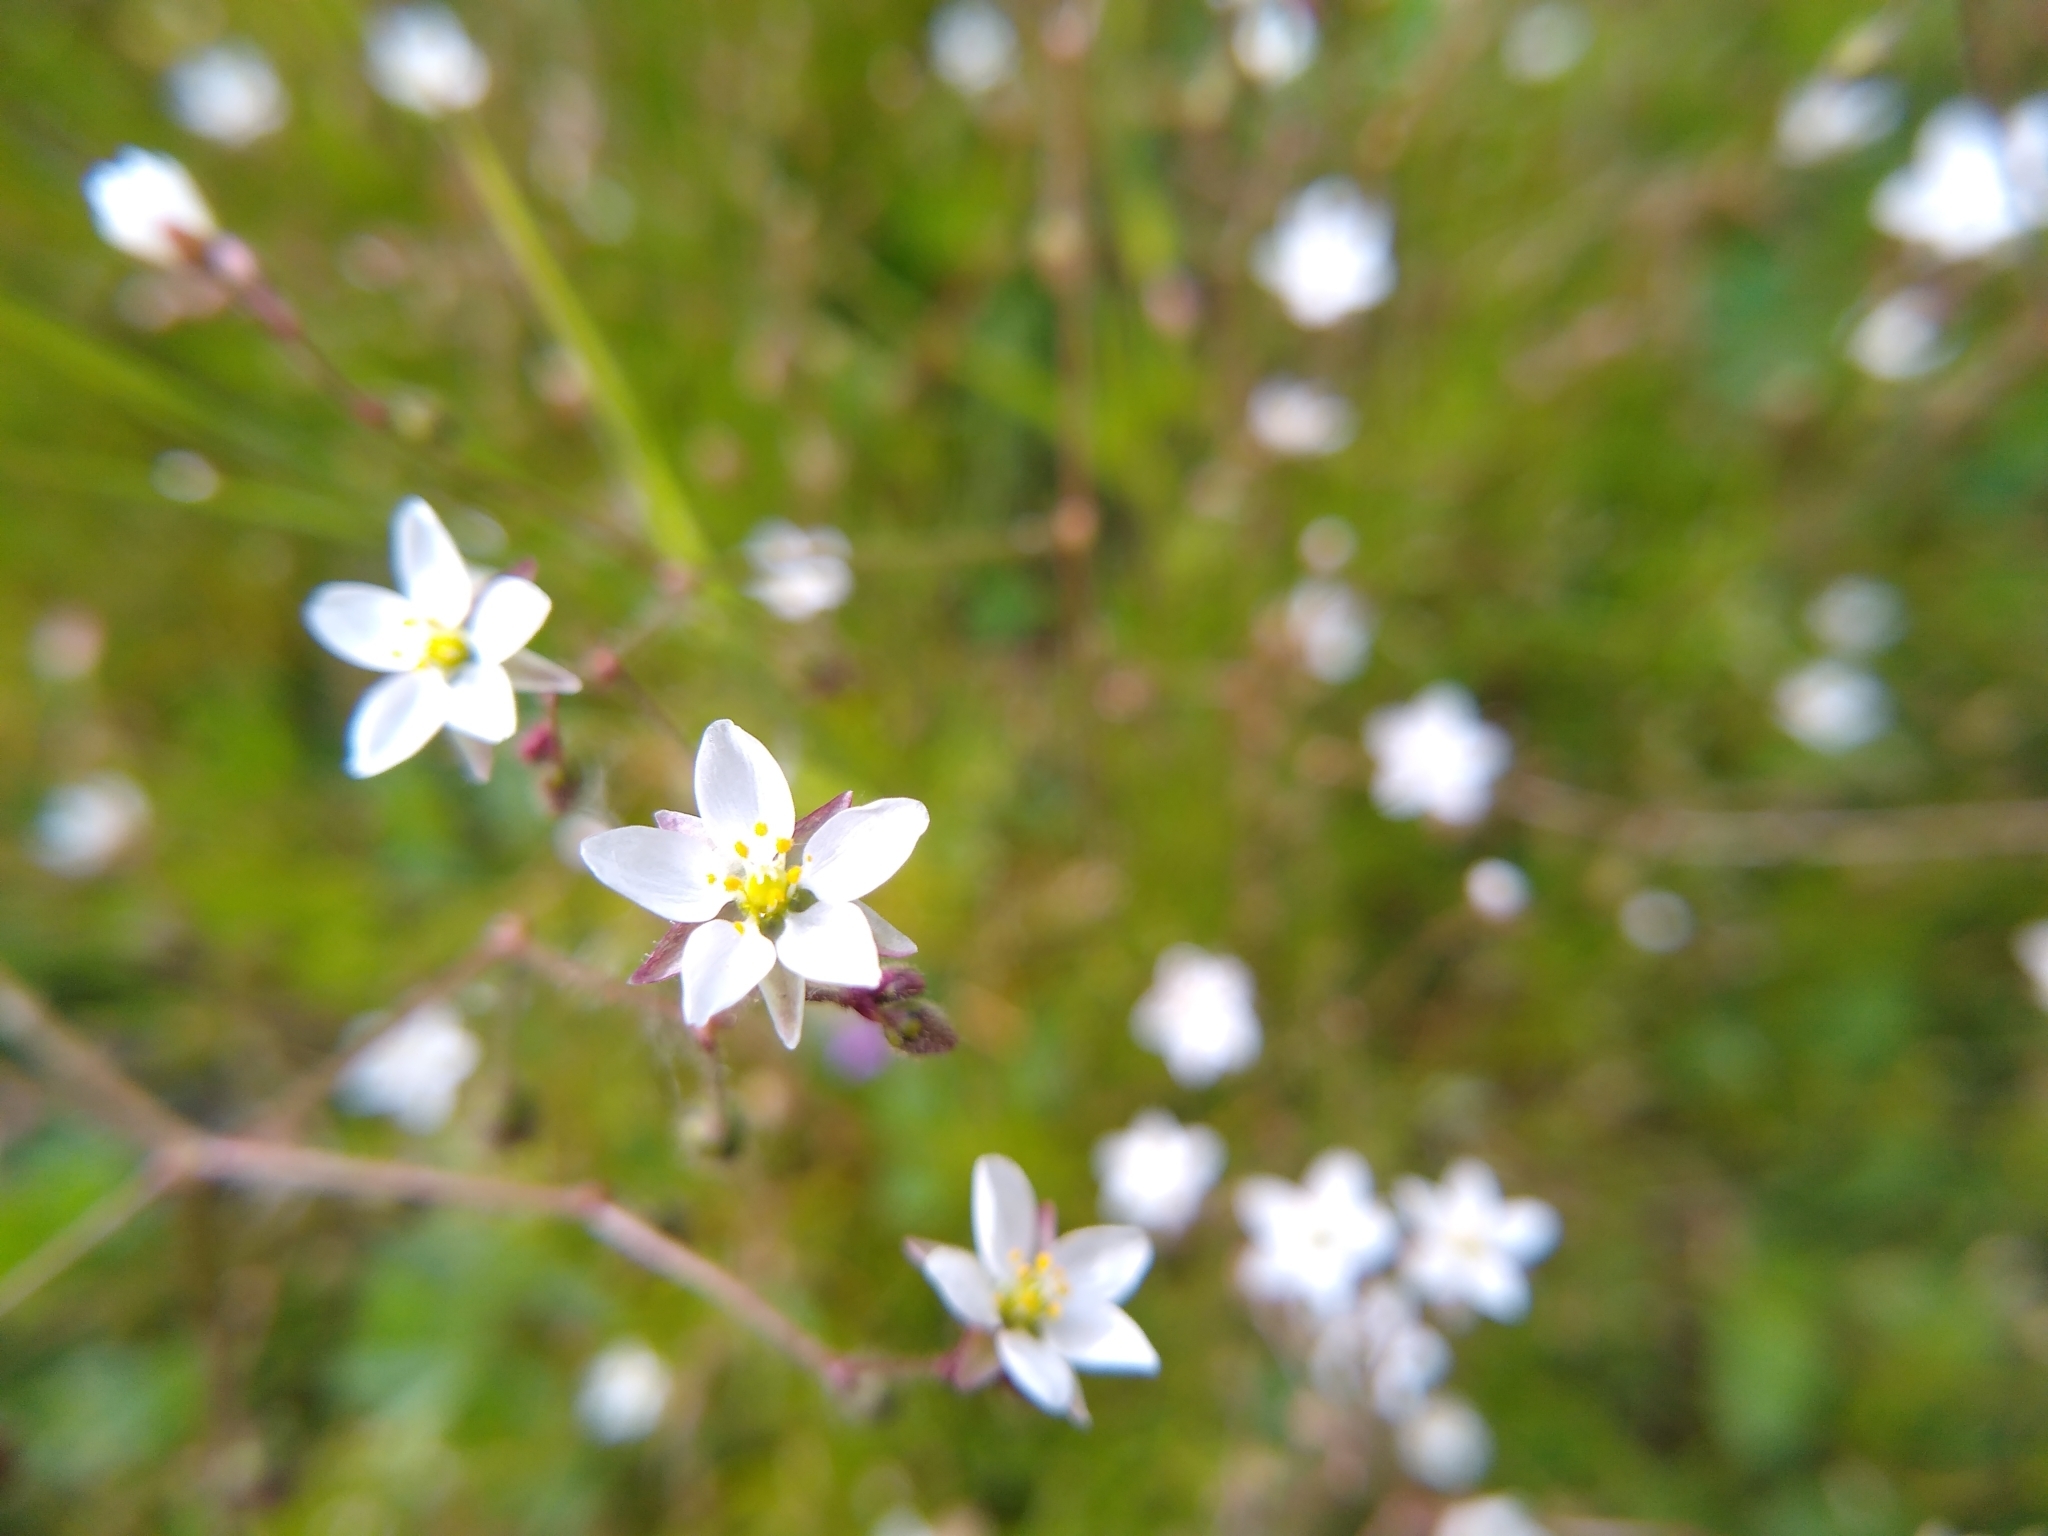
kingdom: Plantae
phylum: Tracheophyta
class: Magnoliopsida
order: Caryophyllales
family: Caryophyllaceae
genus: Spergula
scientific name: Spergula arvensis
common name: Corn spurrey
